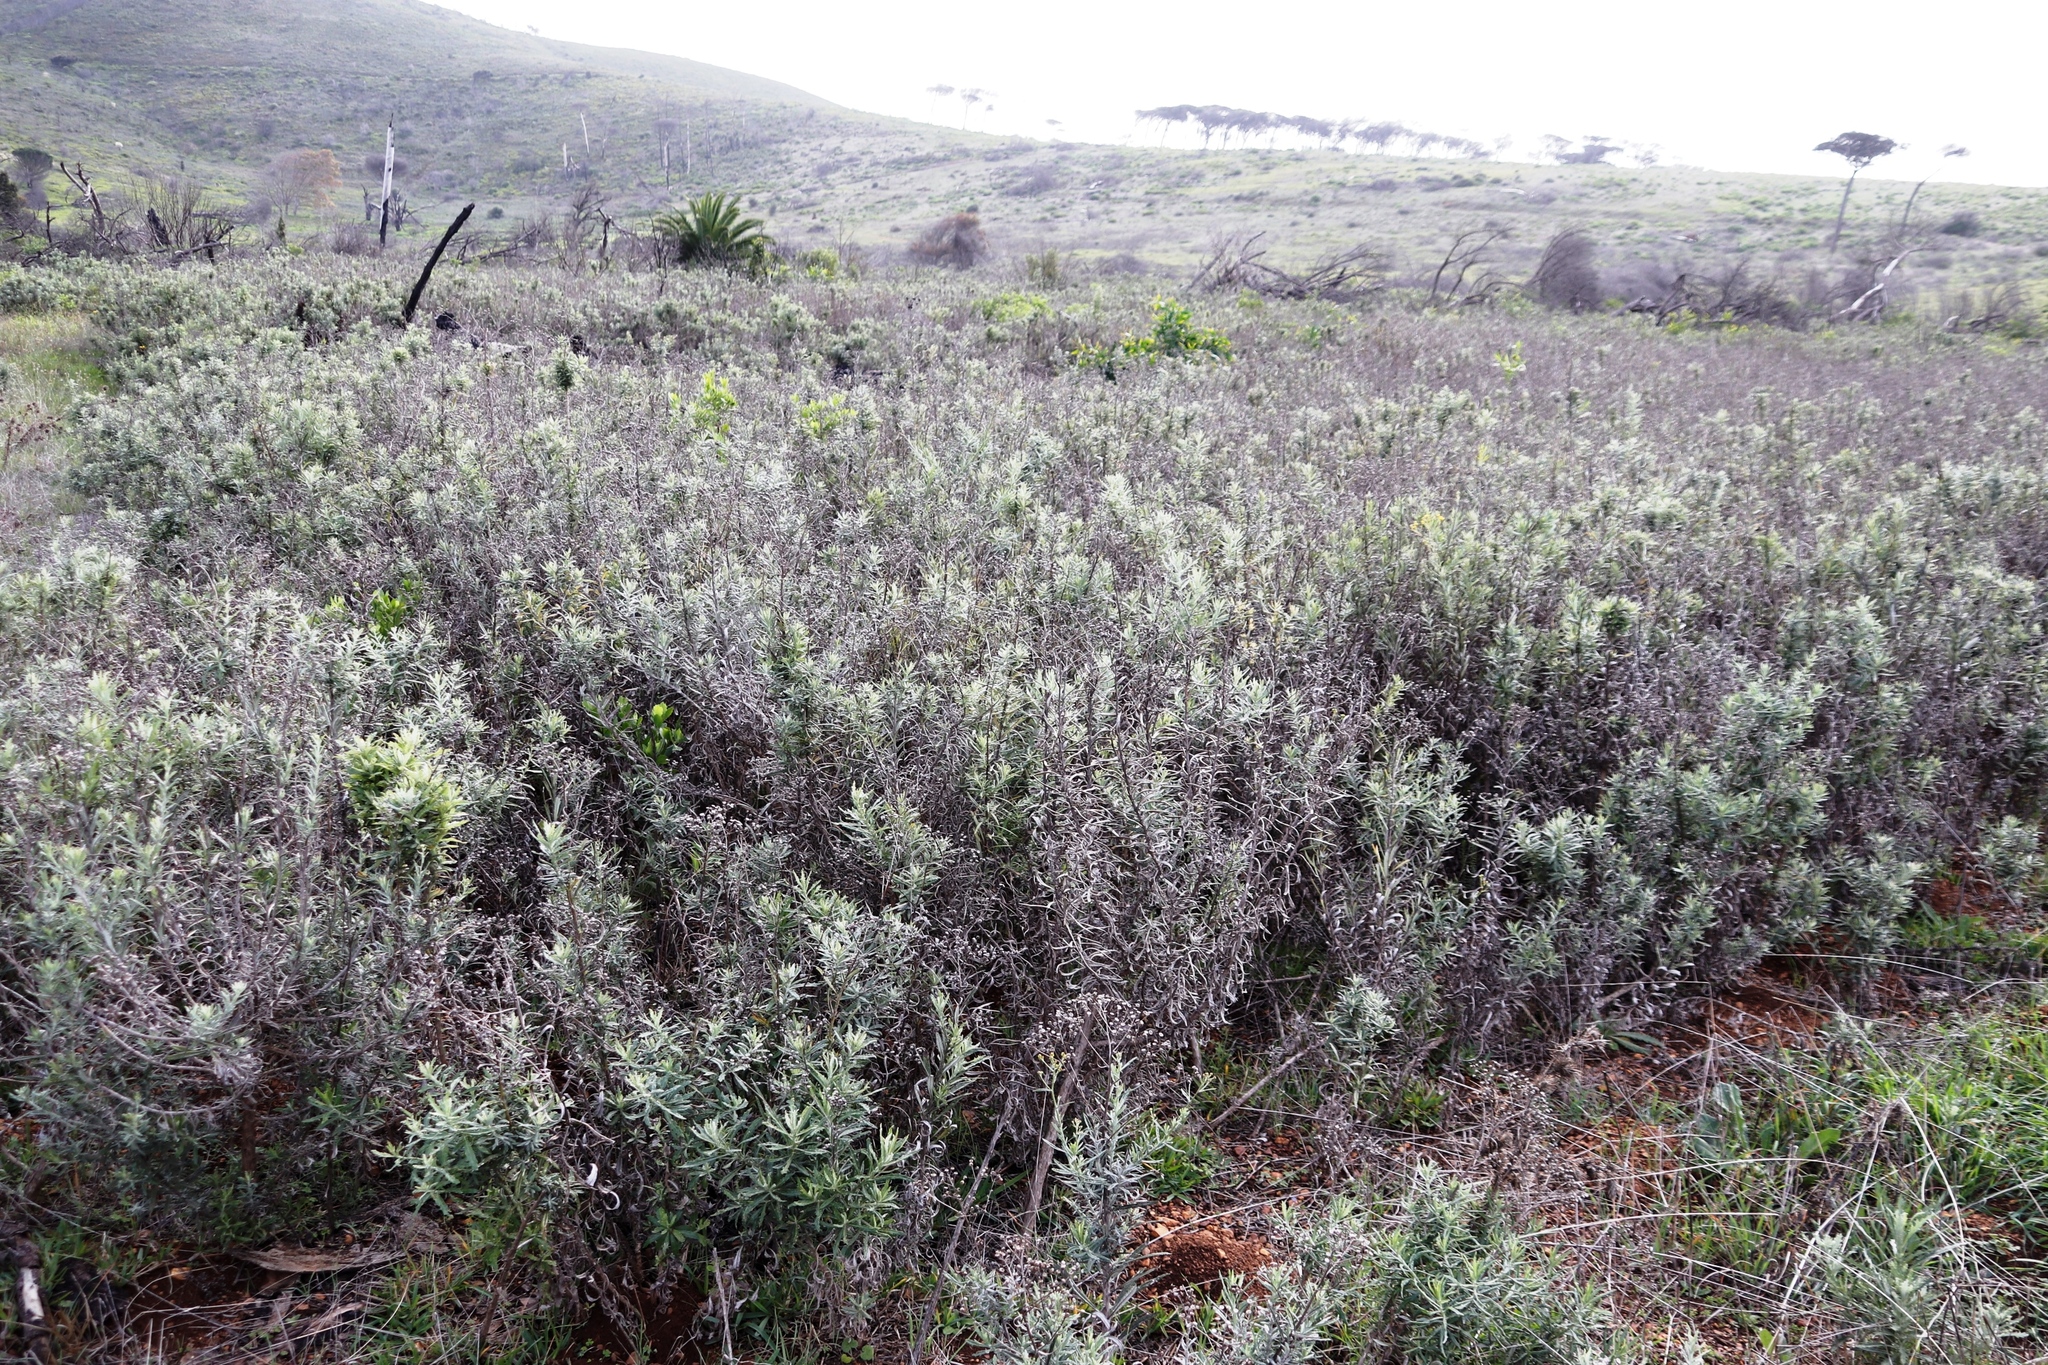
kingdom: Plantae
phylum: Tracheophyta
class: Magnoliopsida
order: Asterales
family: Asteraceae
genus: Senecio
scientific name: Senecio pterophorus
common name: Shoddy ragwort
